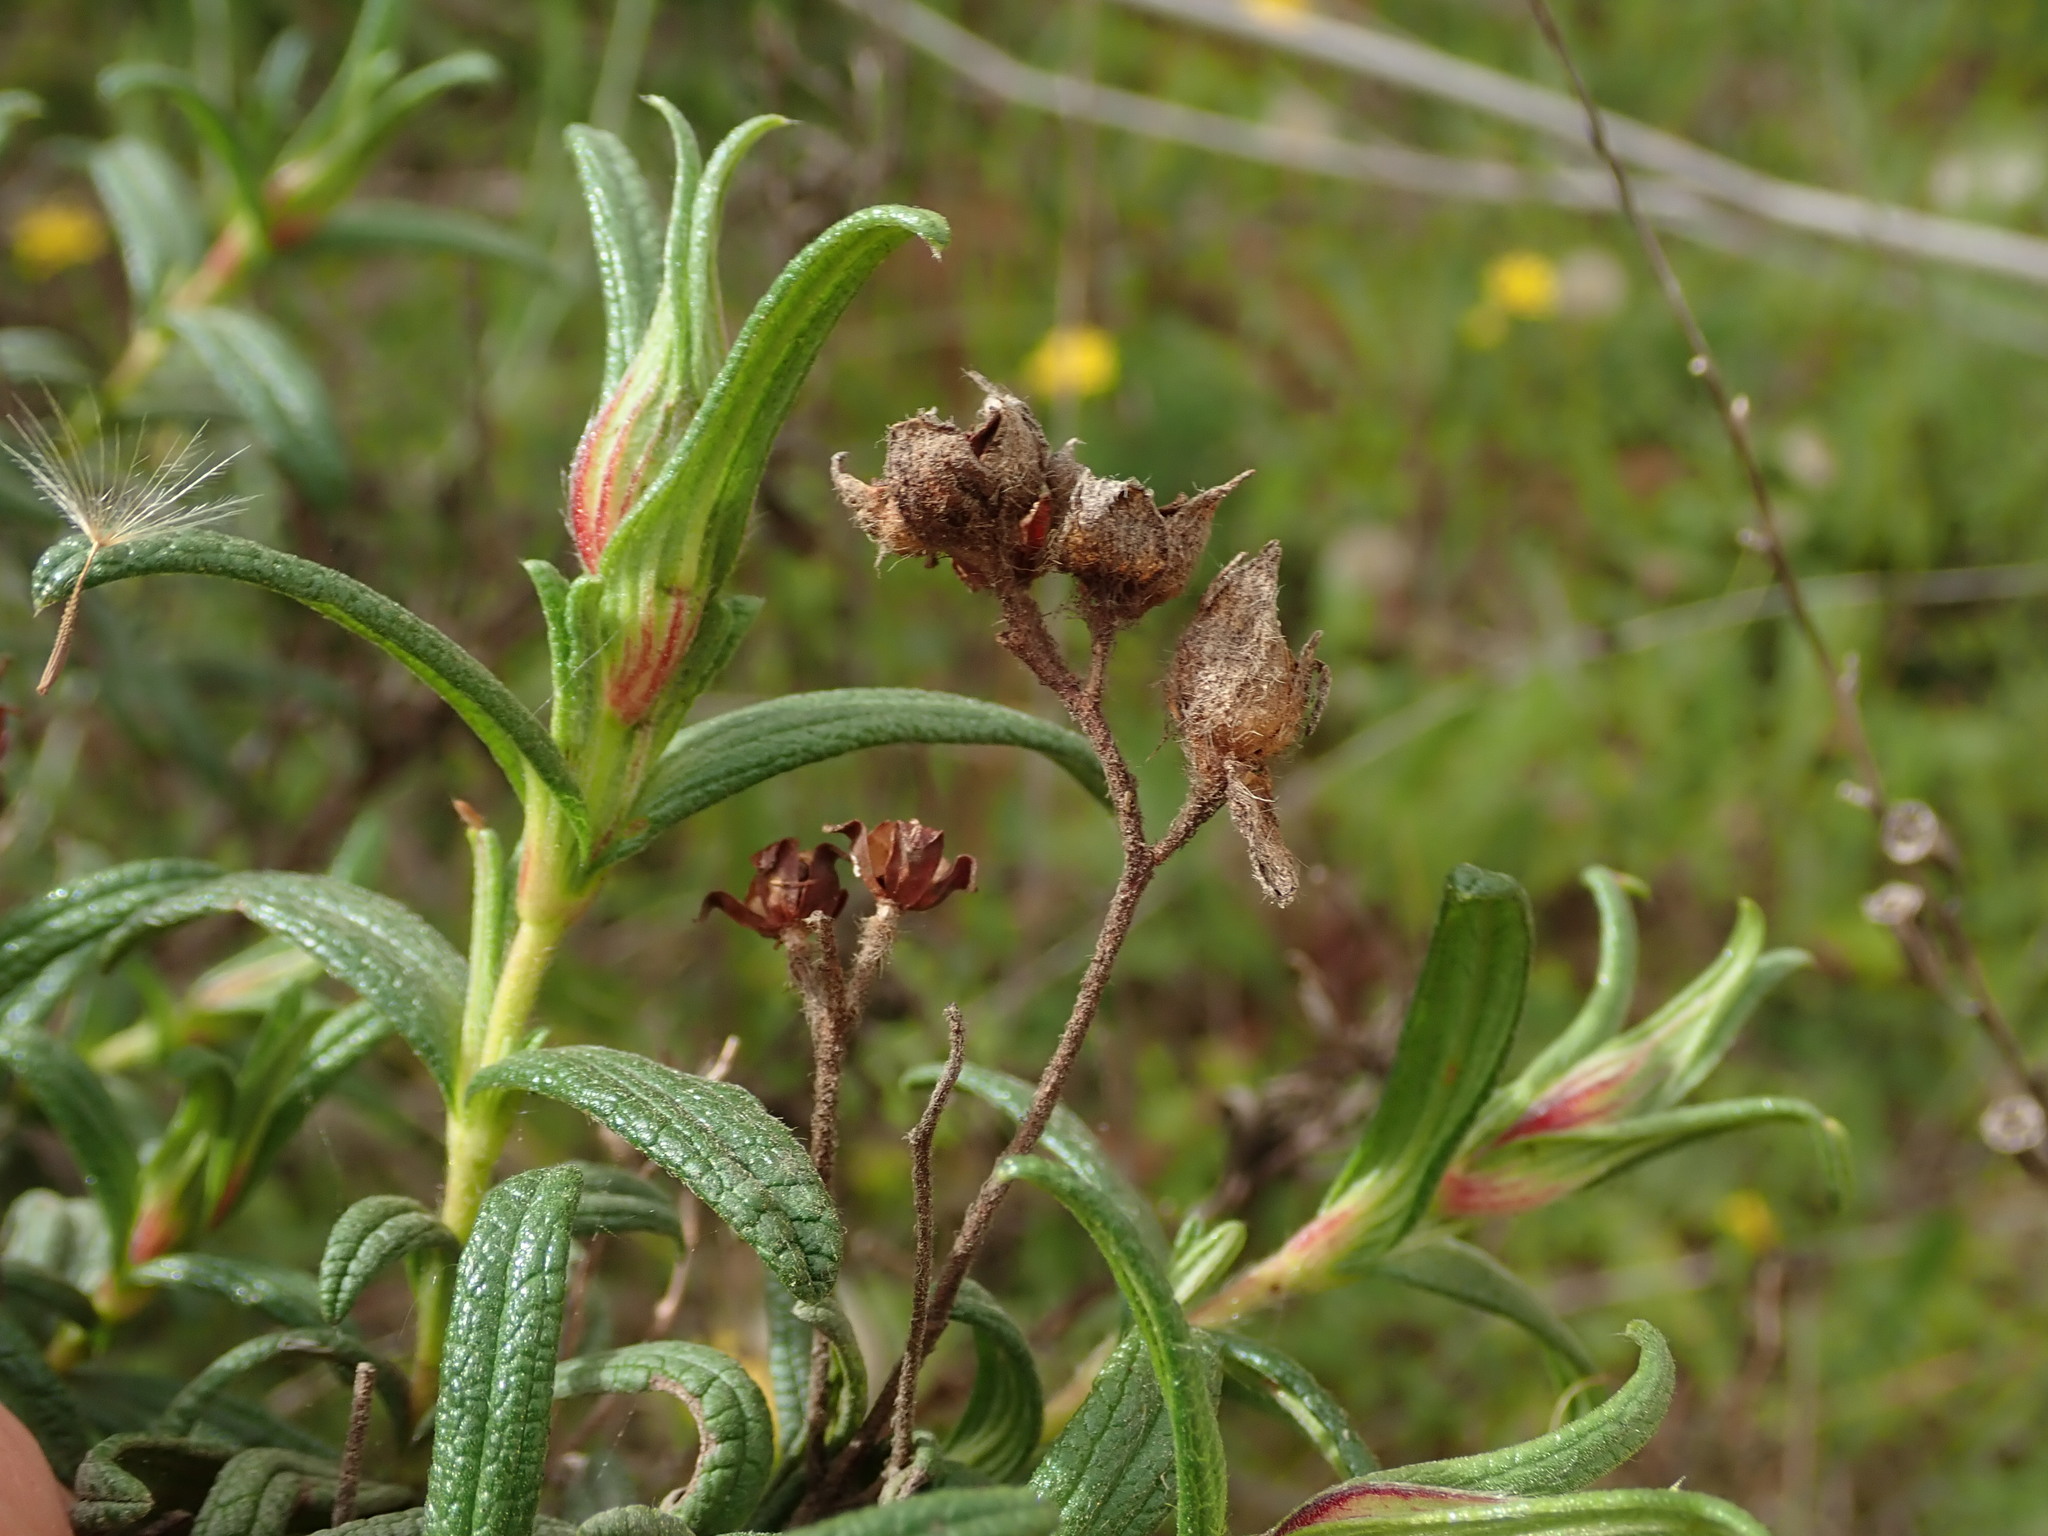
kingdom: Plantae
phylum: Tracheophyta
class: Magnoliopsida
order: Malvales
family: Cistaceae
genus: Cistus
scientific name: Cistus monspeliensis
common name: Montpelier cistus
